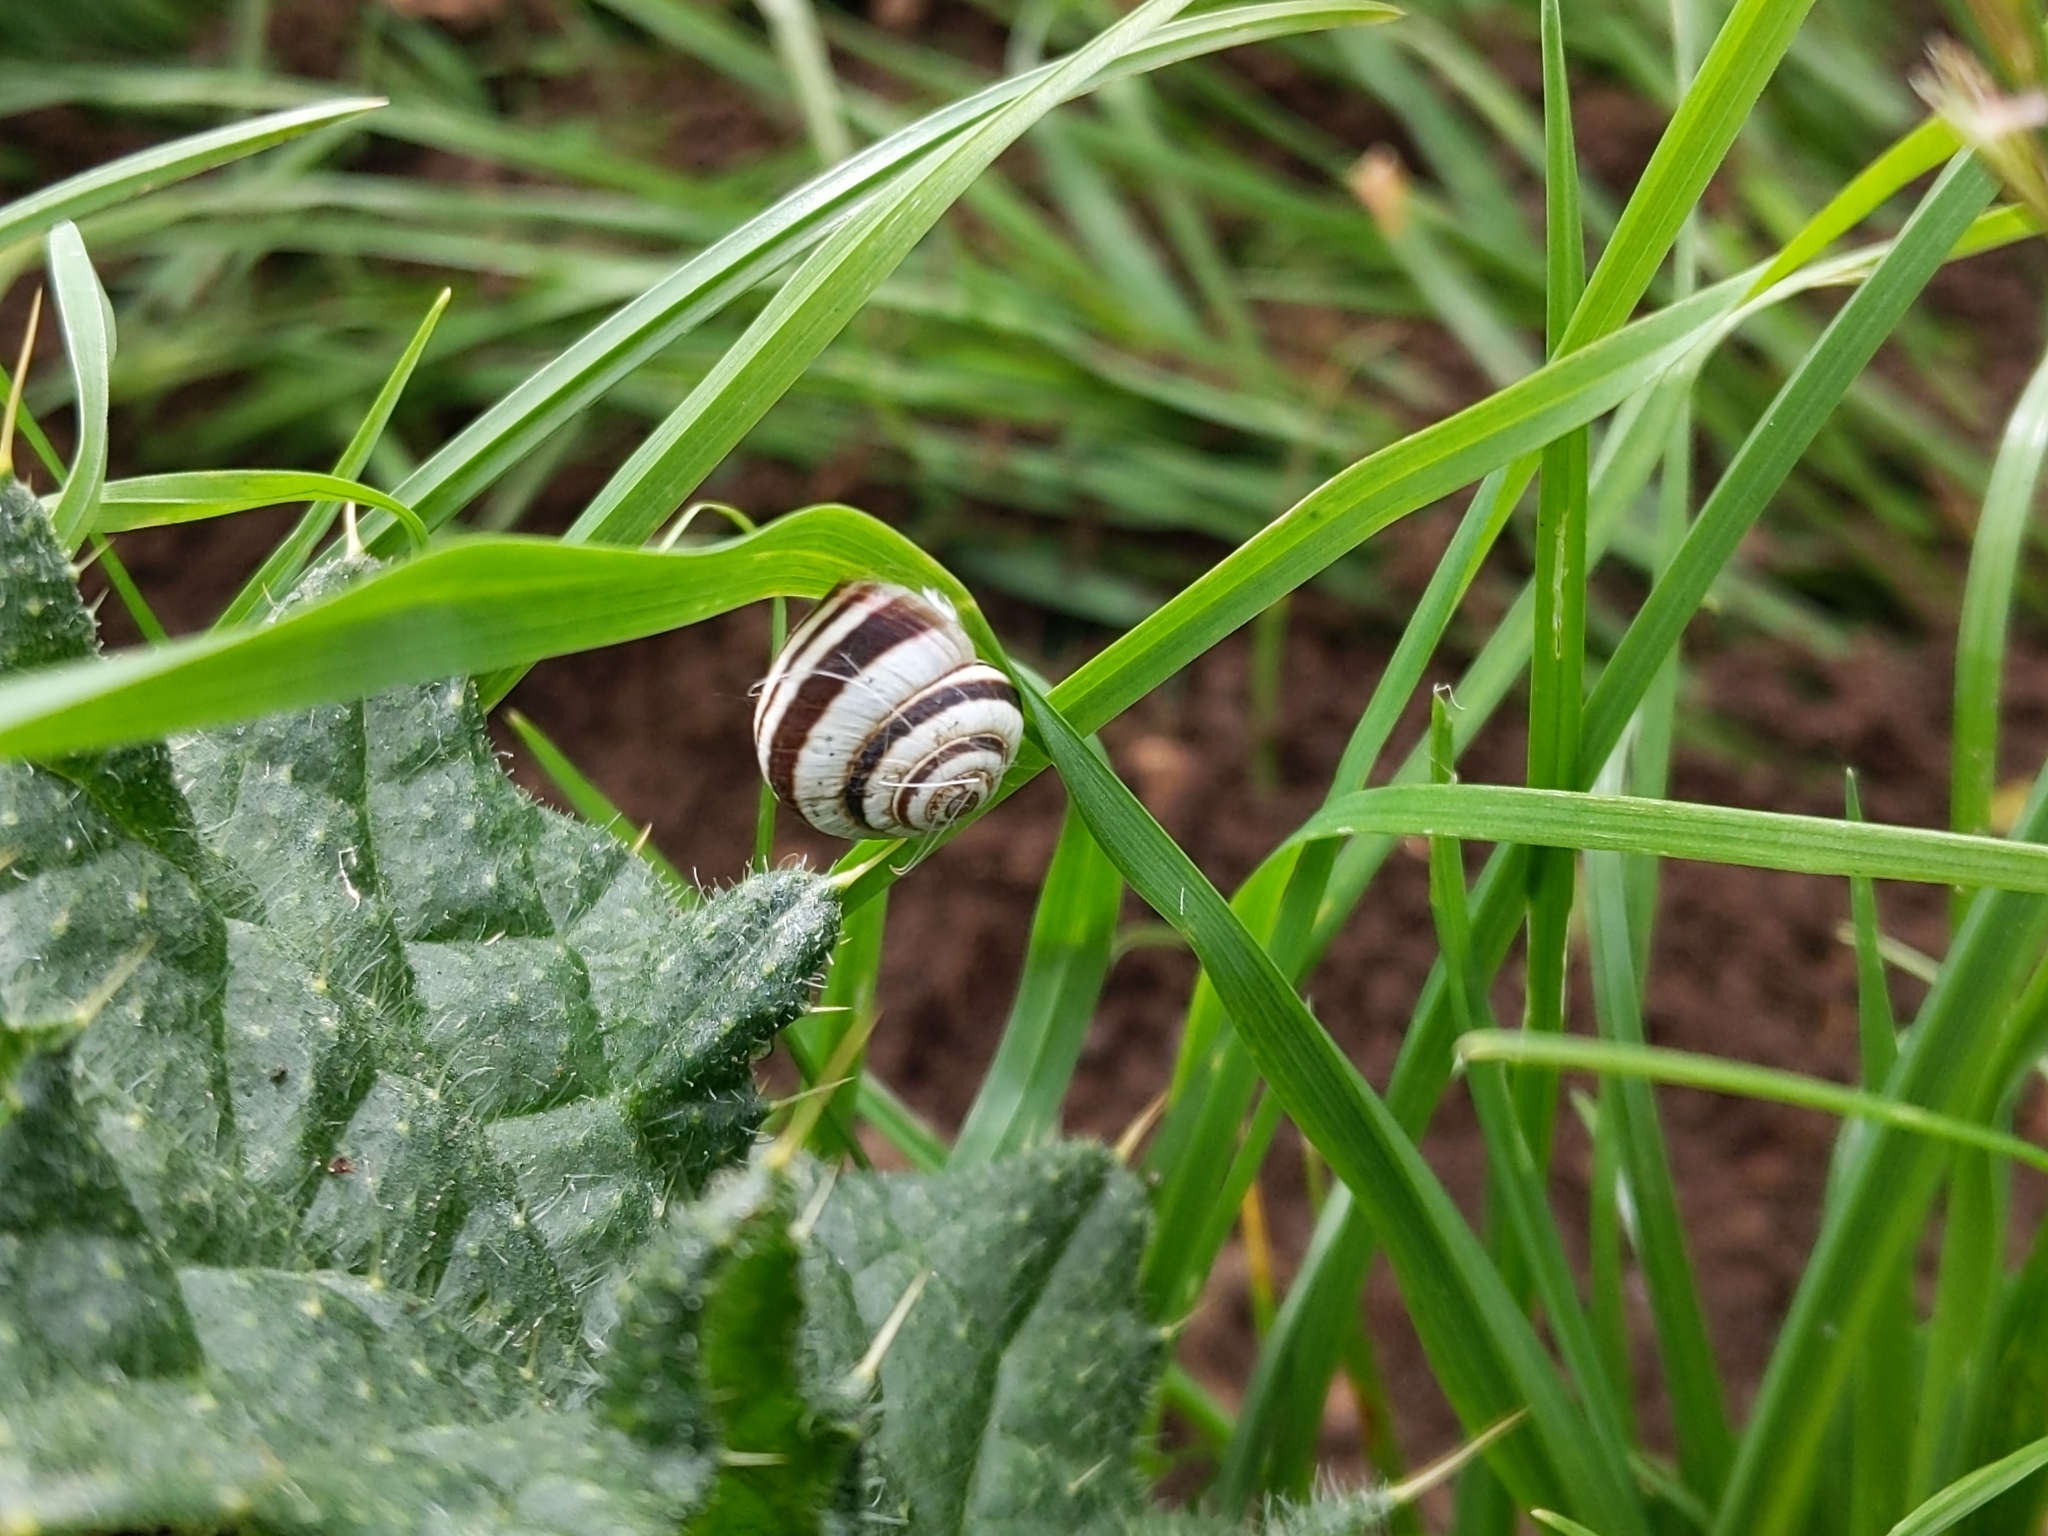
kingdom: Animalia
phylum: Mollusca
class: Gastropoda
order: Stylommatophora
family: Geomitridae
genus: Cernuella
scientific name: Cernuella virgata
